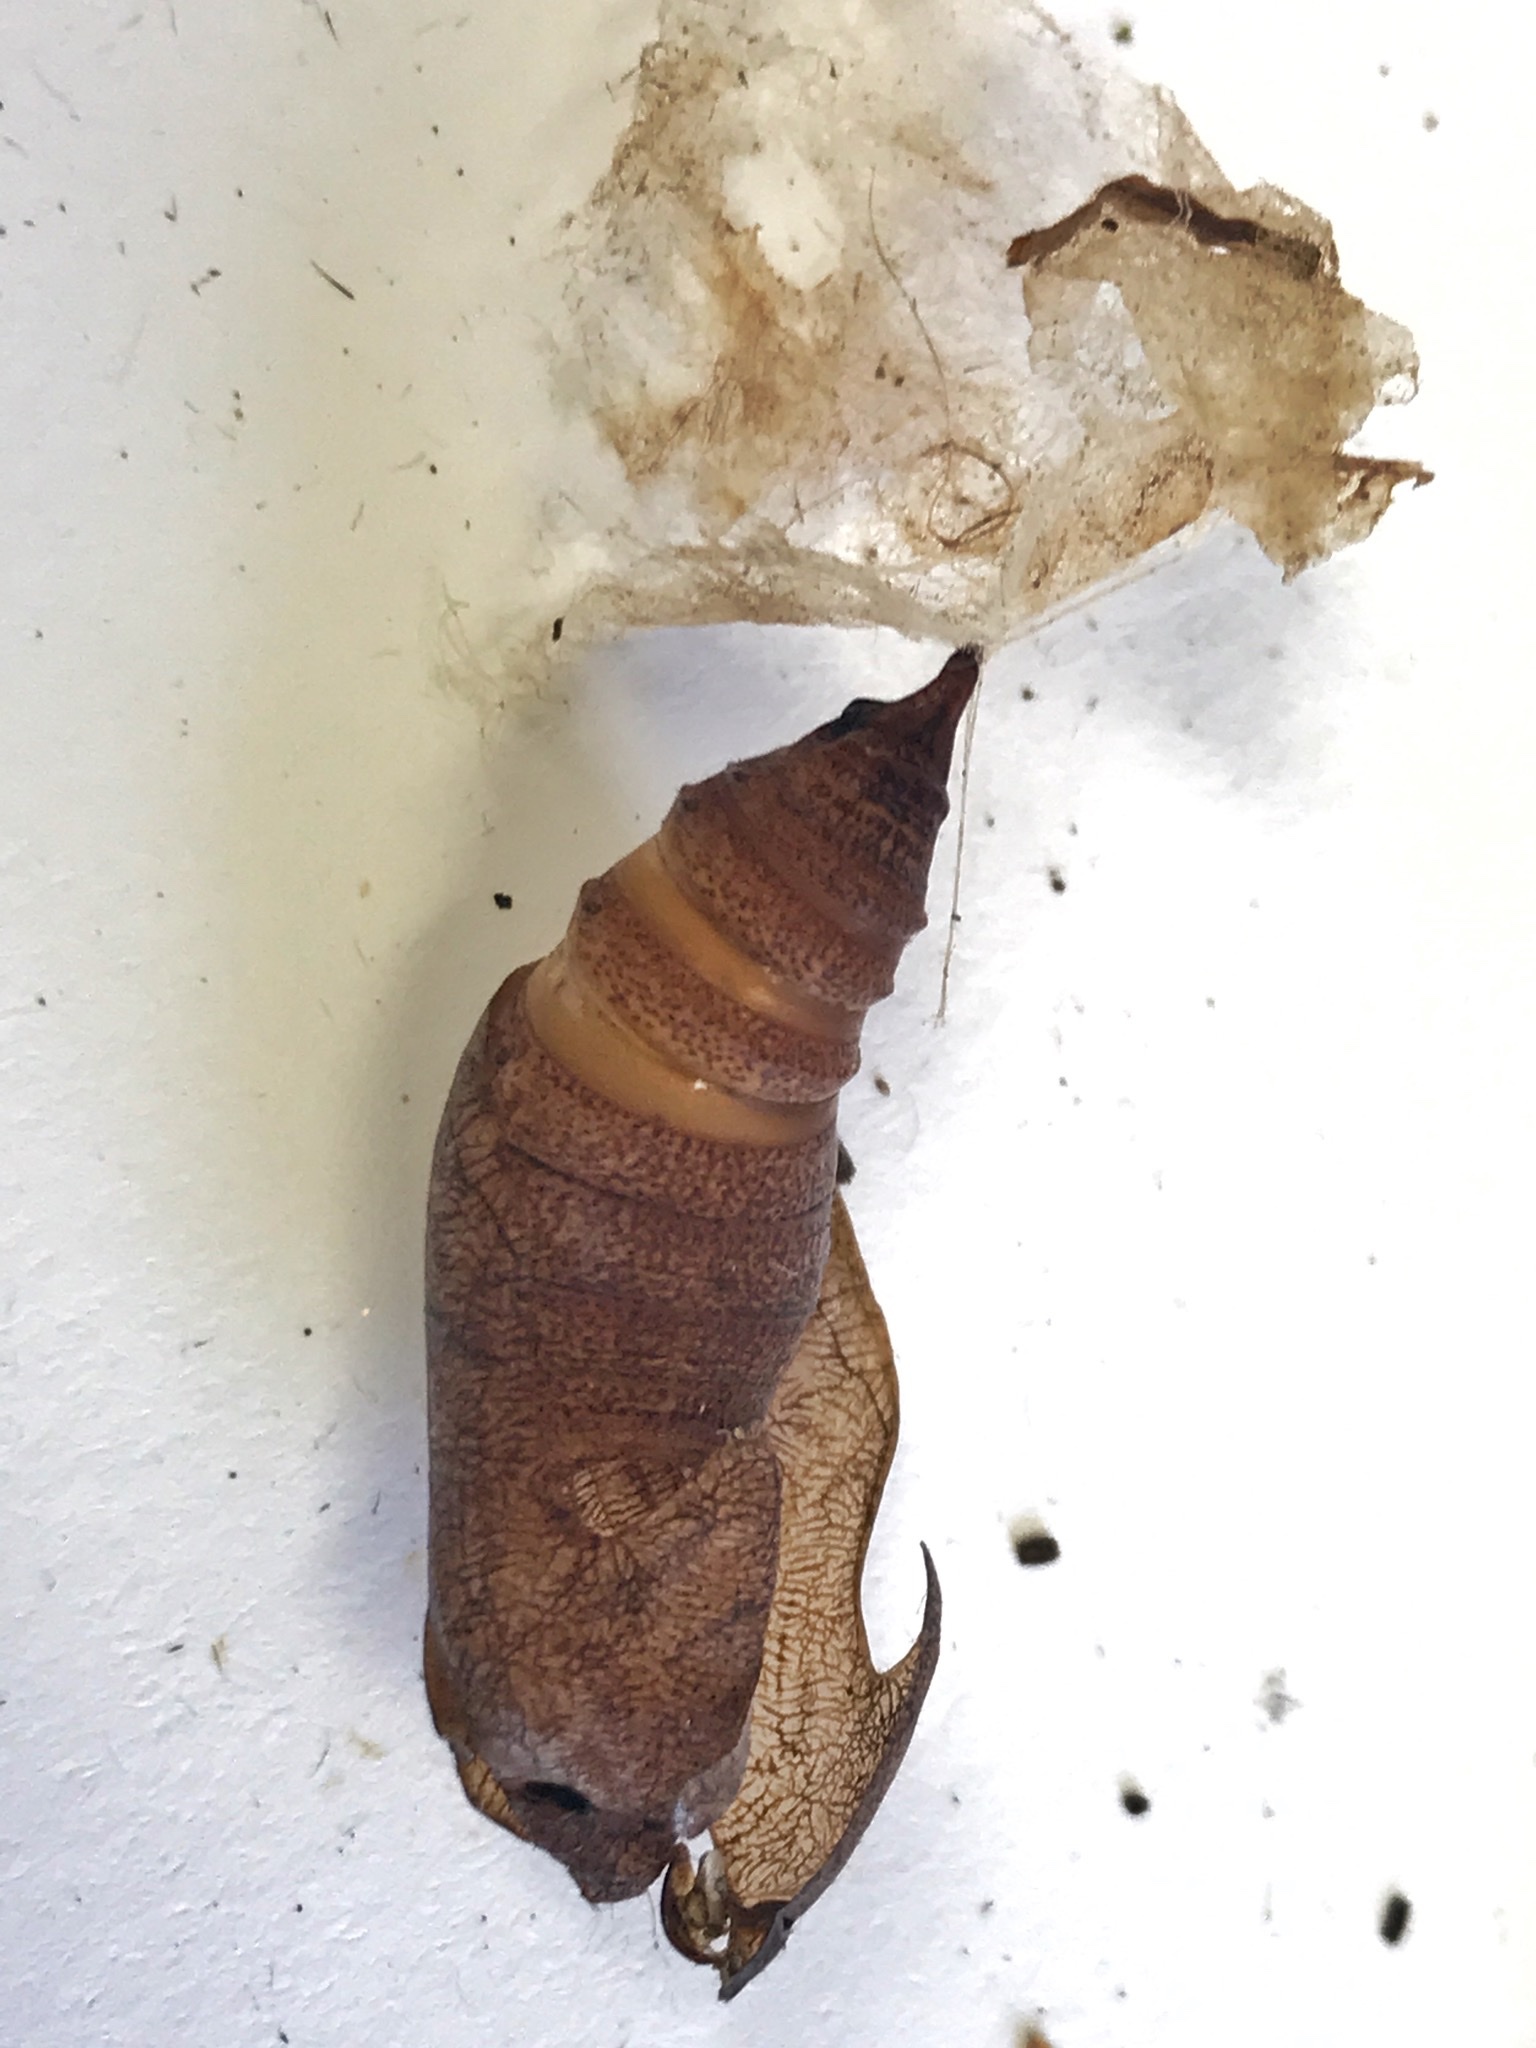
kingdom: Animalia
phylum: Arthropoda
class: Insecta
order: Lepidoptera
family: Hesperiidae
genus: Epargyreus
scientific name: Epargyreus clarus
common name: Silver-spotted skipper
